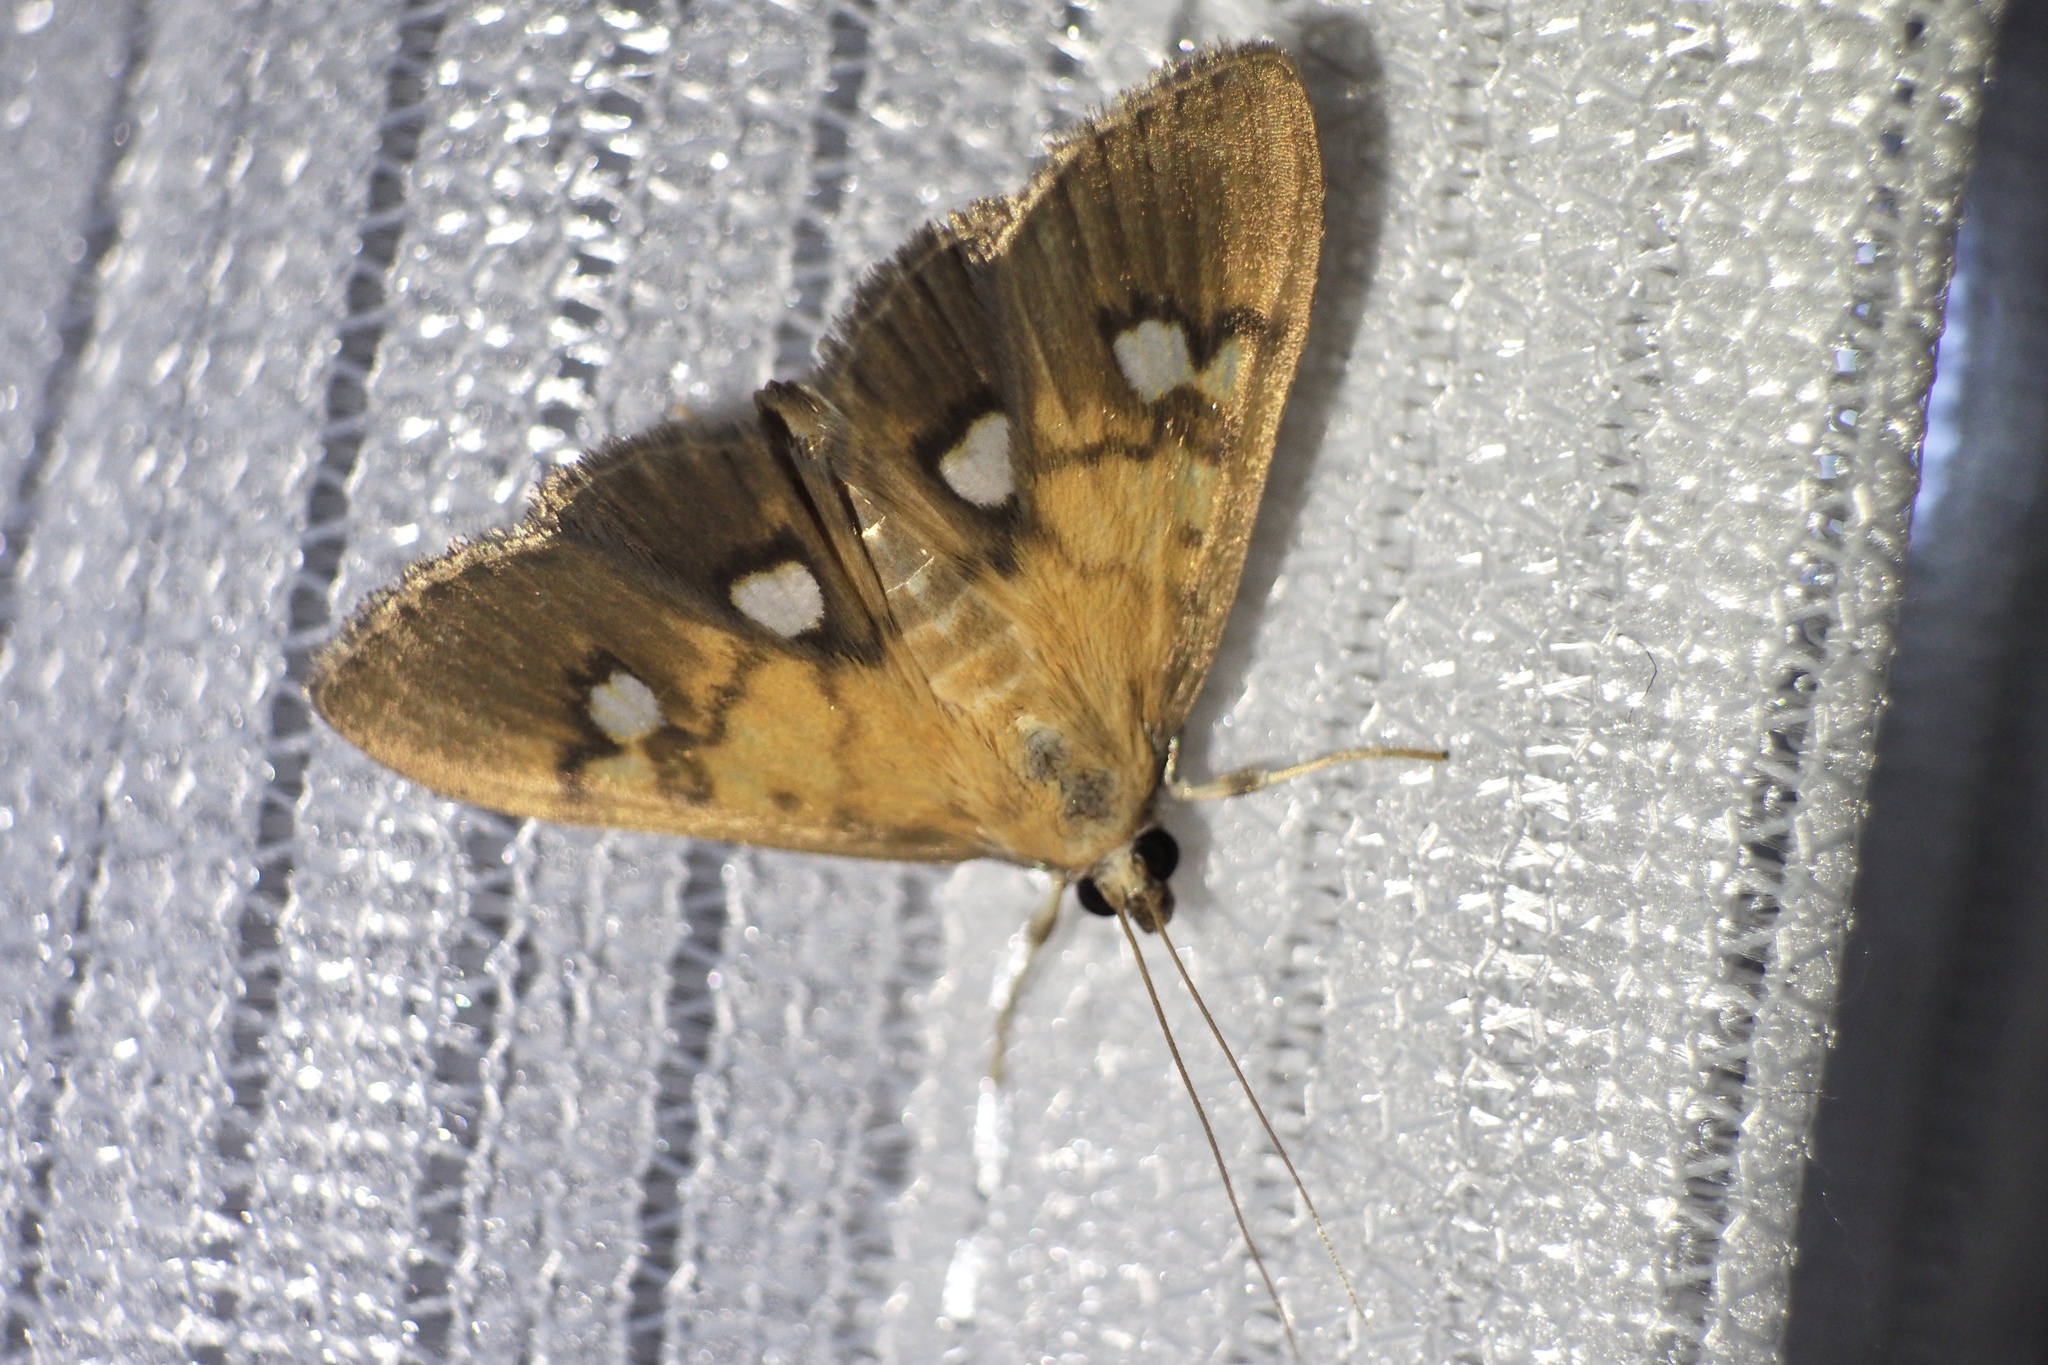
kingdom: Animalia
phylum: Arthropoda
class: Insecta
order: Lepidoptera
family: Crambidae
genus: Nosophora
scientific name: Nosophora semitritalis
